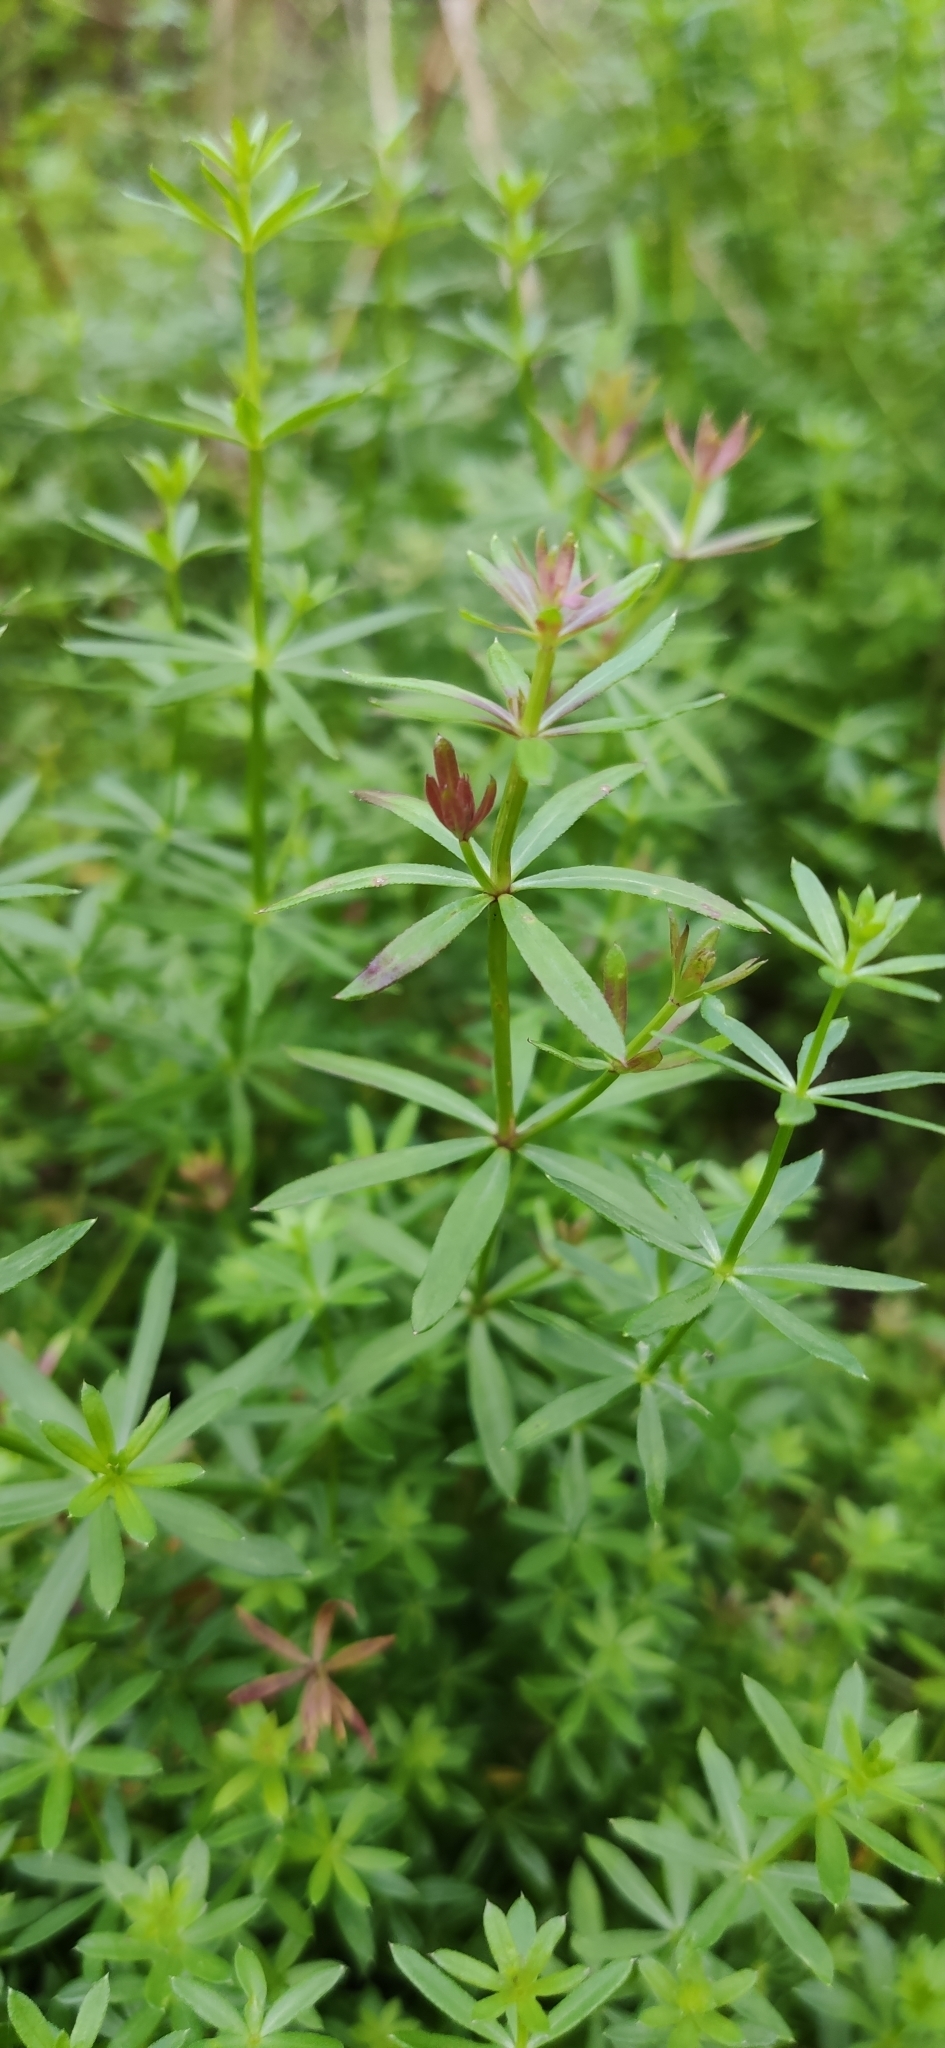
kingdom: Plantae
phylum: Tracheophyta
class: Magnoliopsida
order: Gentianales
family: Rubiaceae
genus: Galium
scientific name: Galium mollugo
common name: Hedge bedstraw
